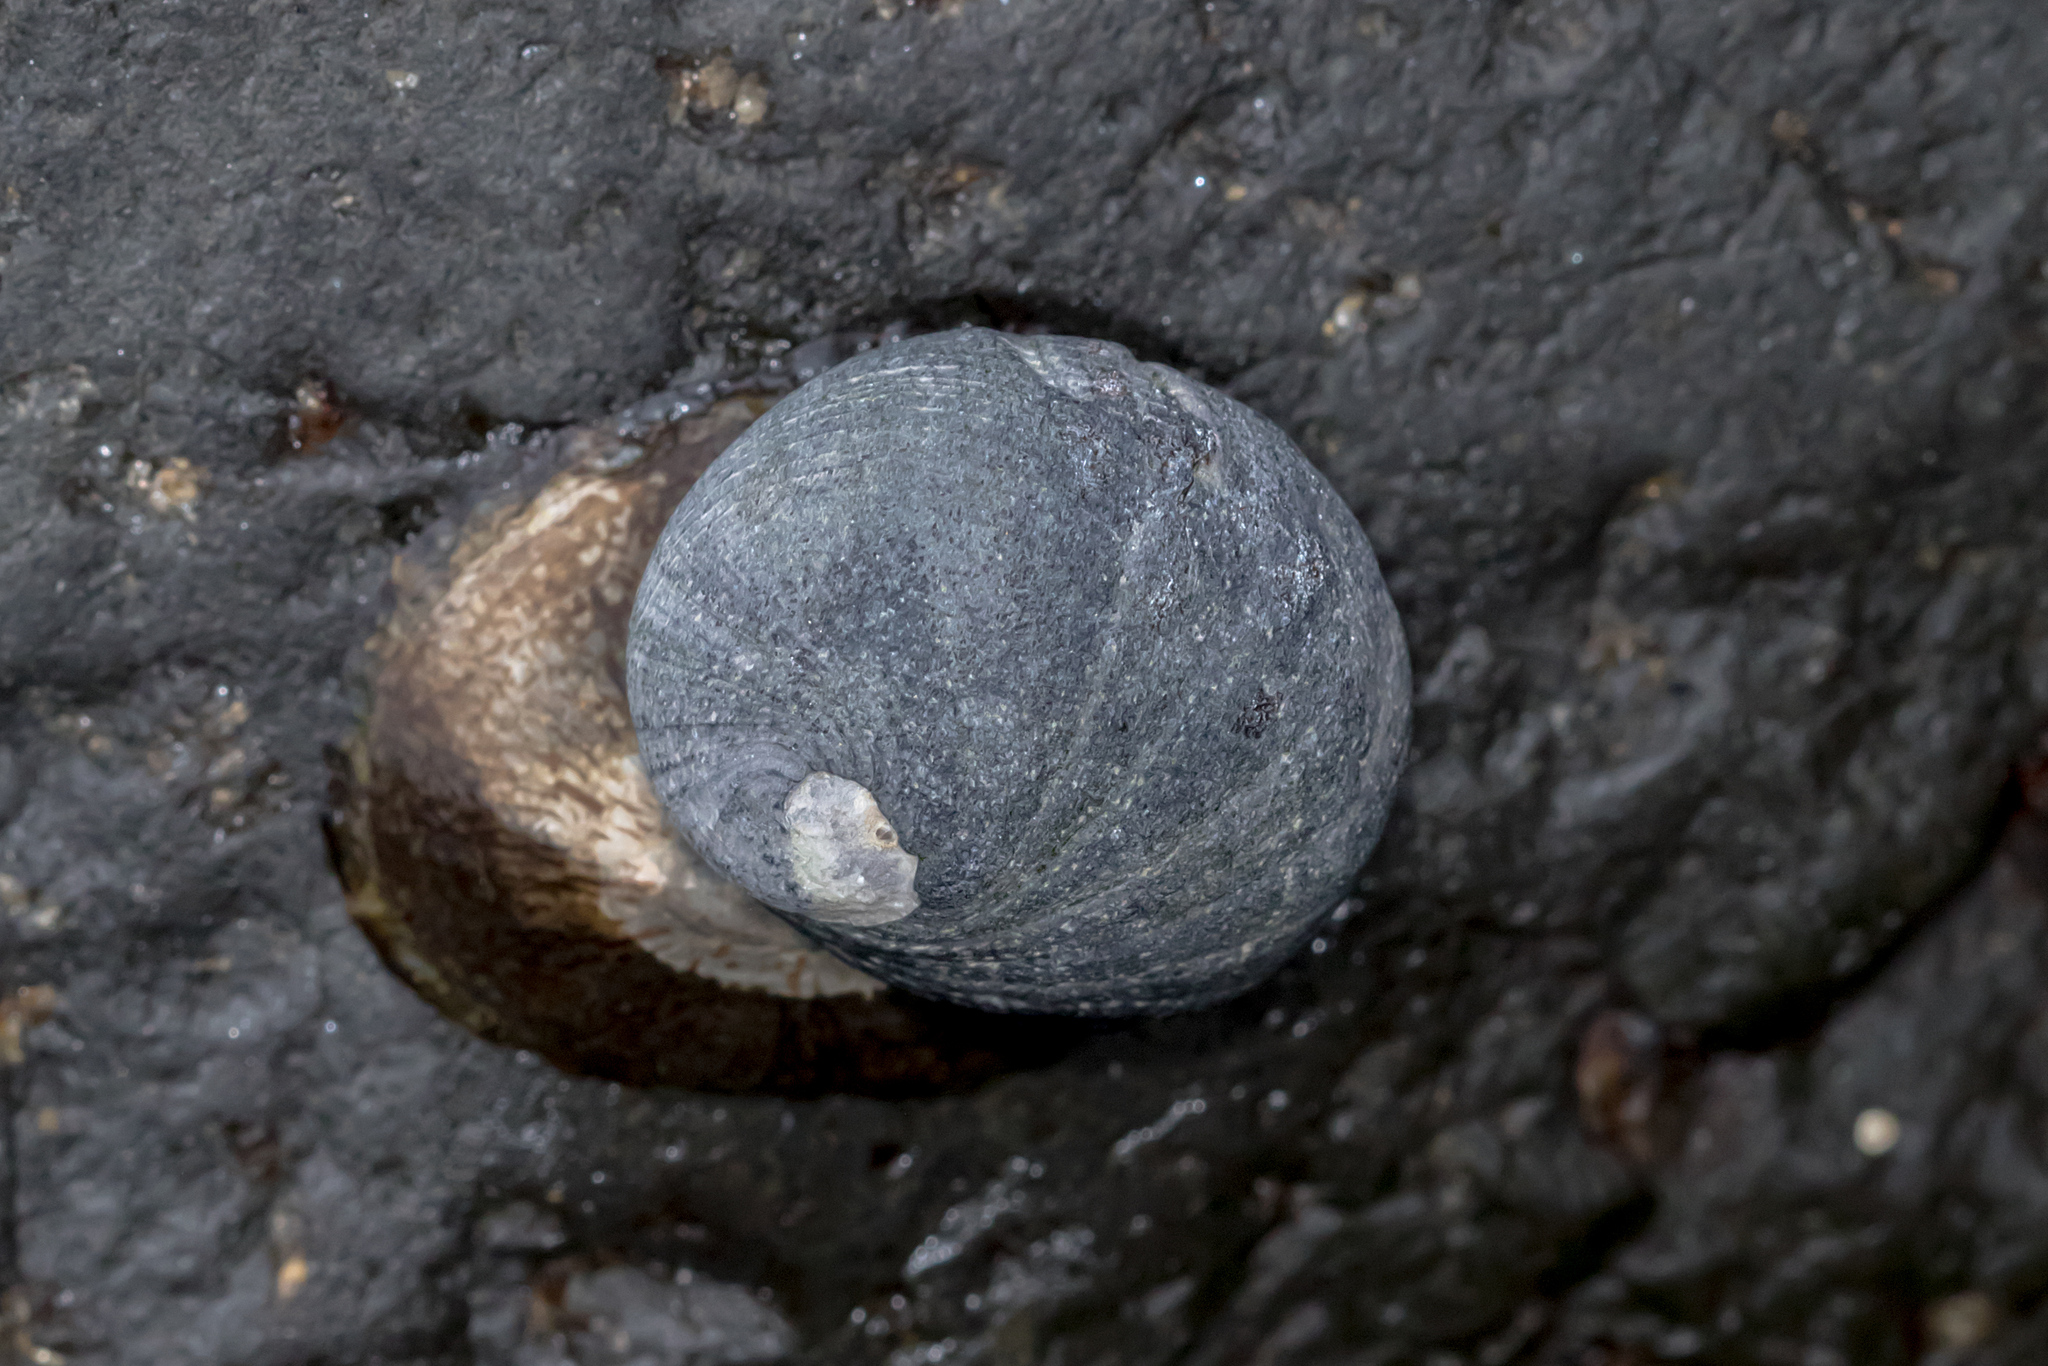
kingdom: Animalia
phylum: Mollusca
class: Gastropoda
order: Cycloneritida
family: Neritidae
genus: Nerita
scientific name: Nerita melanotragus
